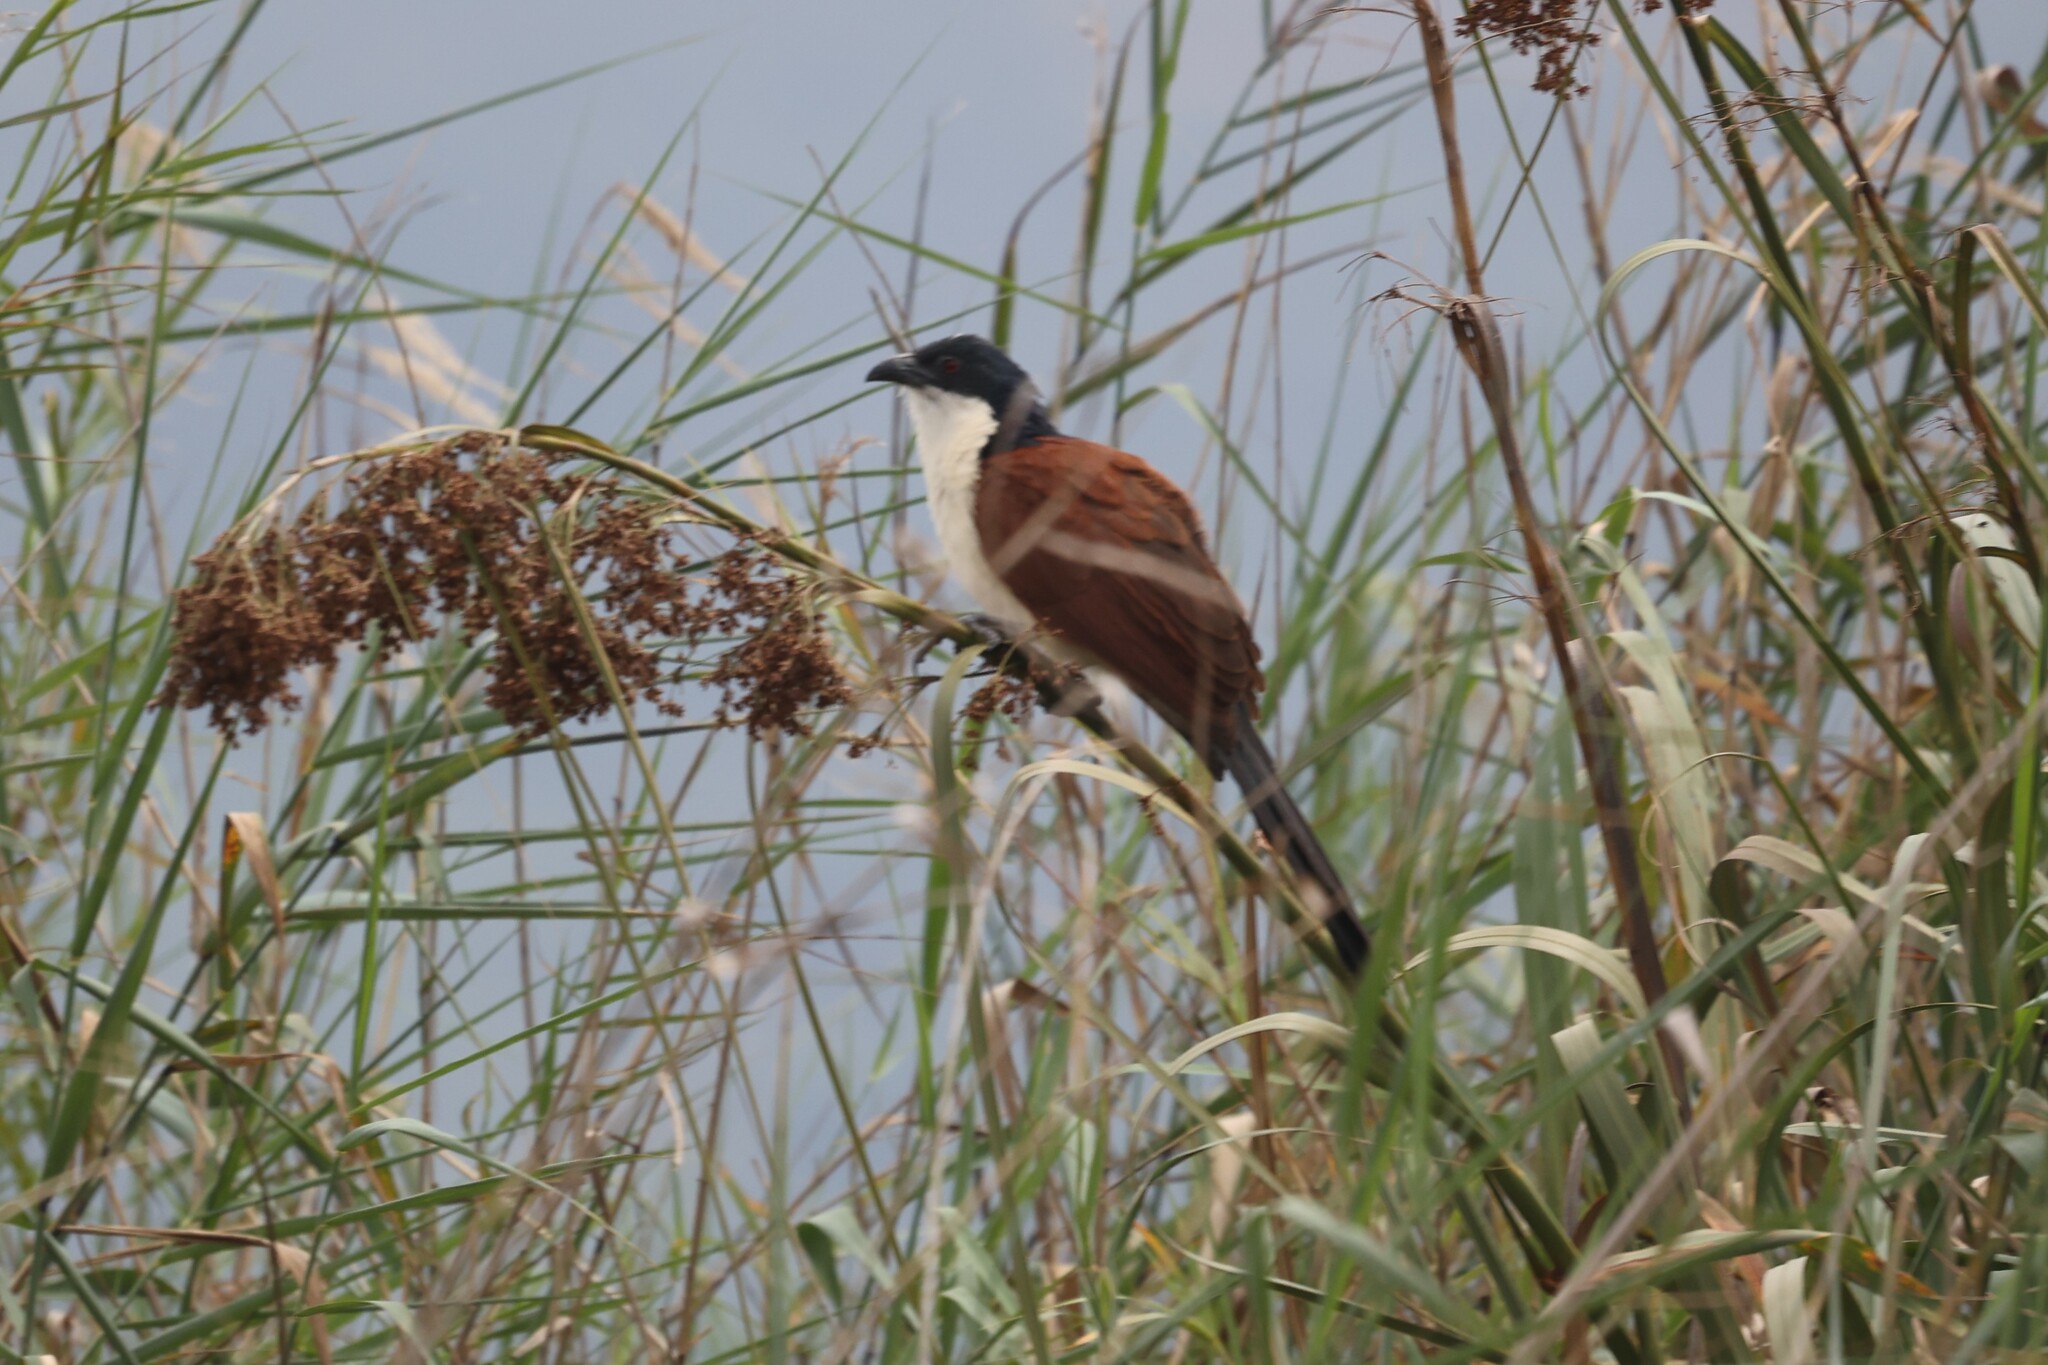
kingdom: Animalia
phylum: Chordata
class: Aves
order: Cuculiformes
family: Cuculidae
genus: Centropus
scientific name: Centropus monachus
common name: Blue-headed coucal
